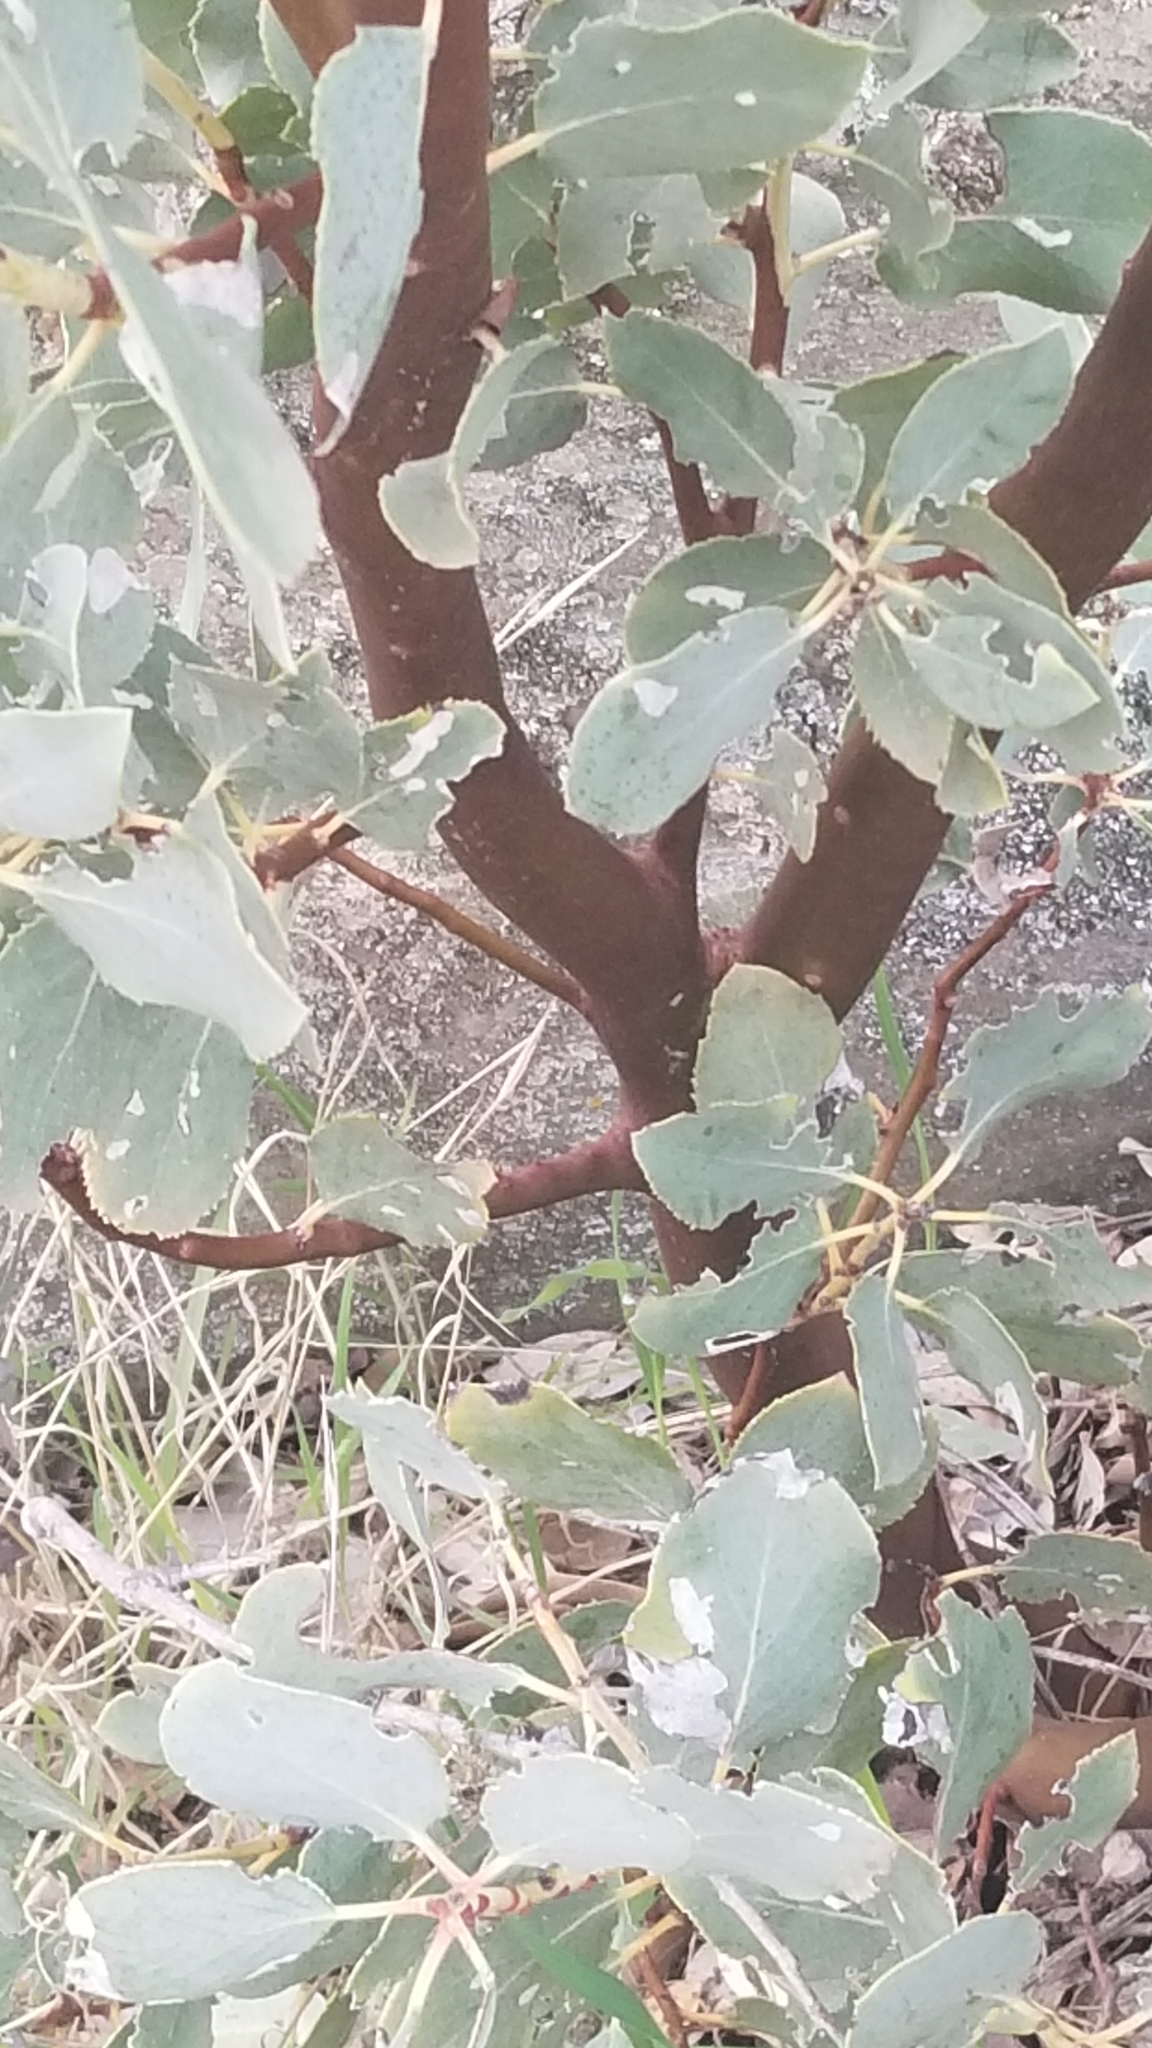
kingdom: Plantae
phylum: Tracheophyta
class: Magnoliopsida
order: Ericales
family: Ericaceae
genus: Arctostaphylos
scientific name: Arctostaphylos glauca
